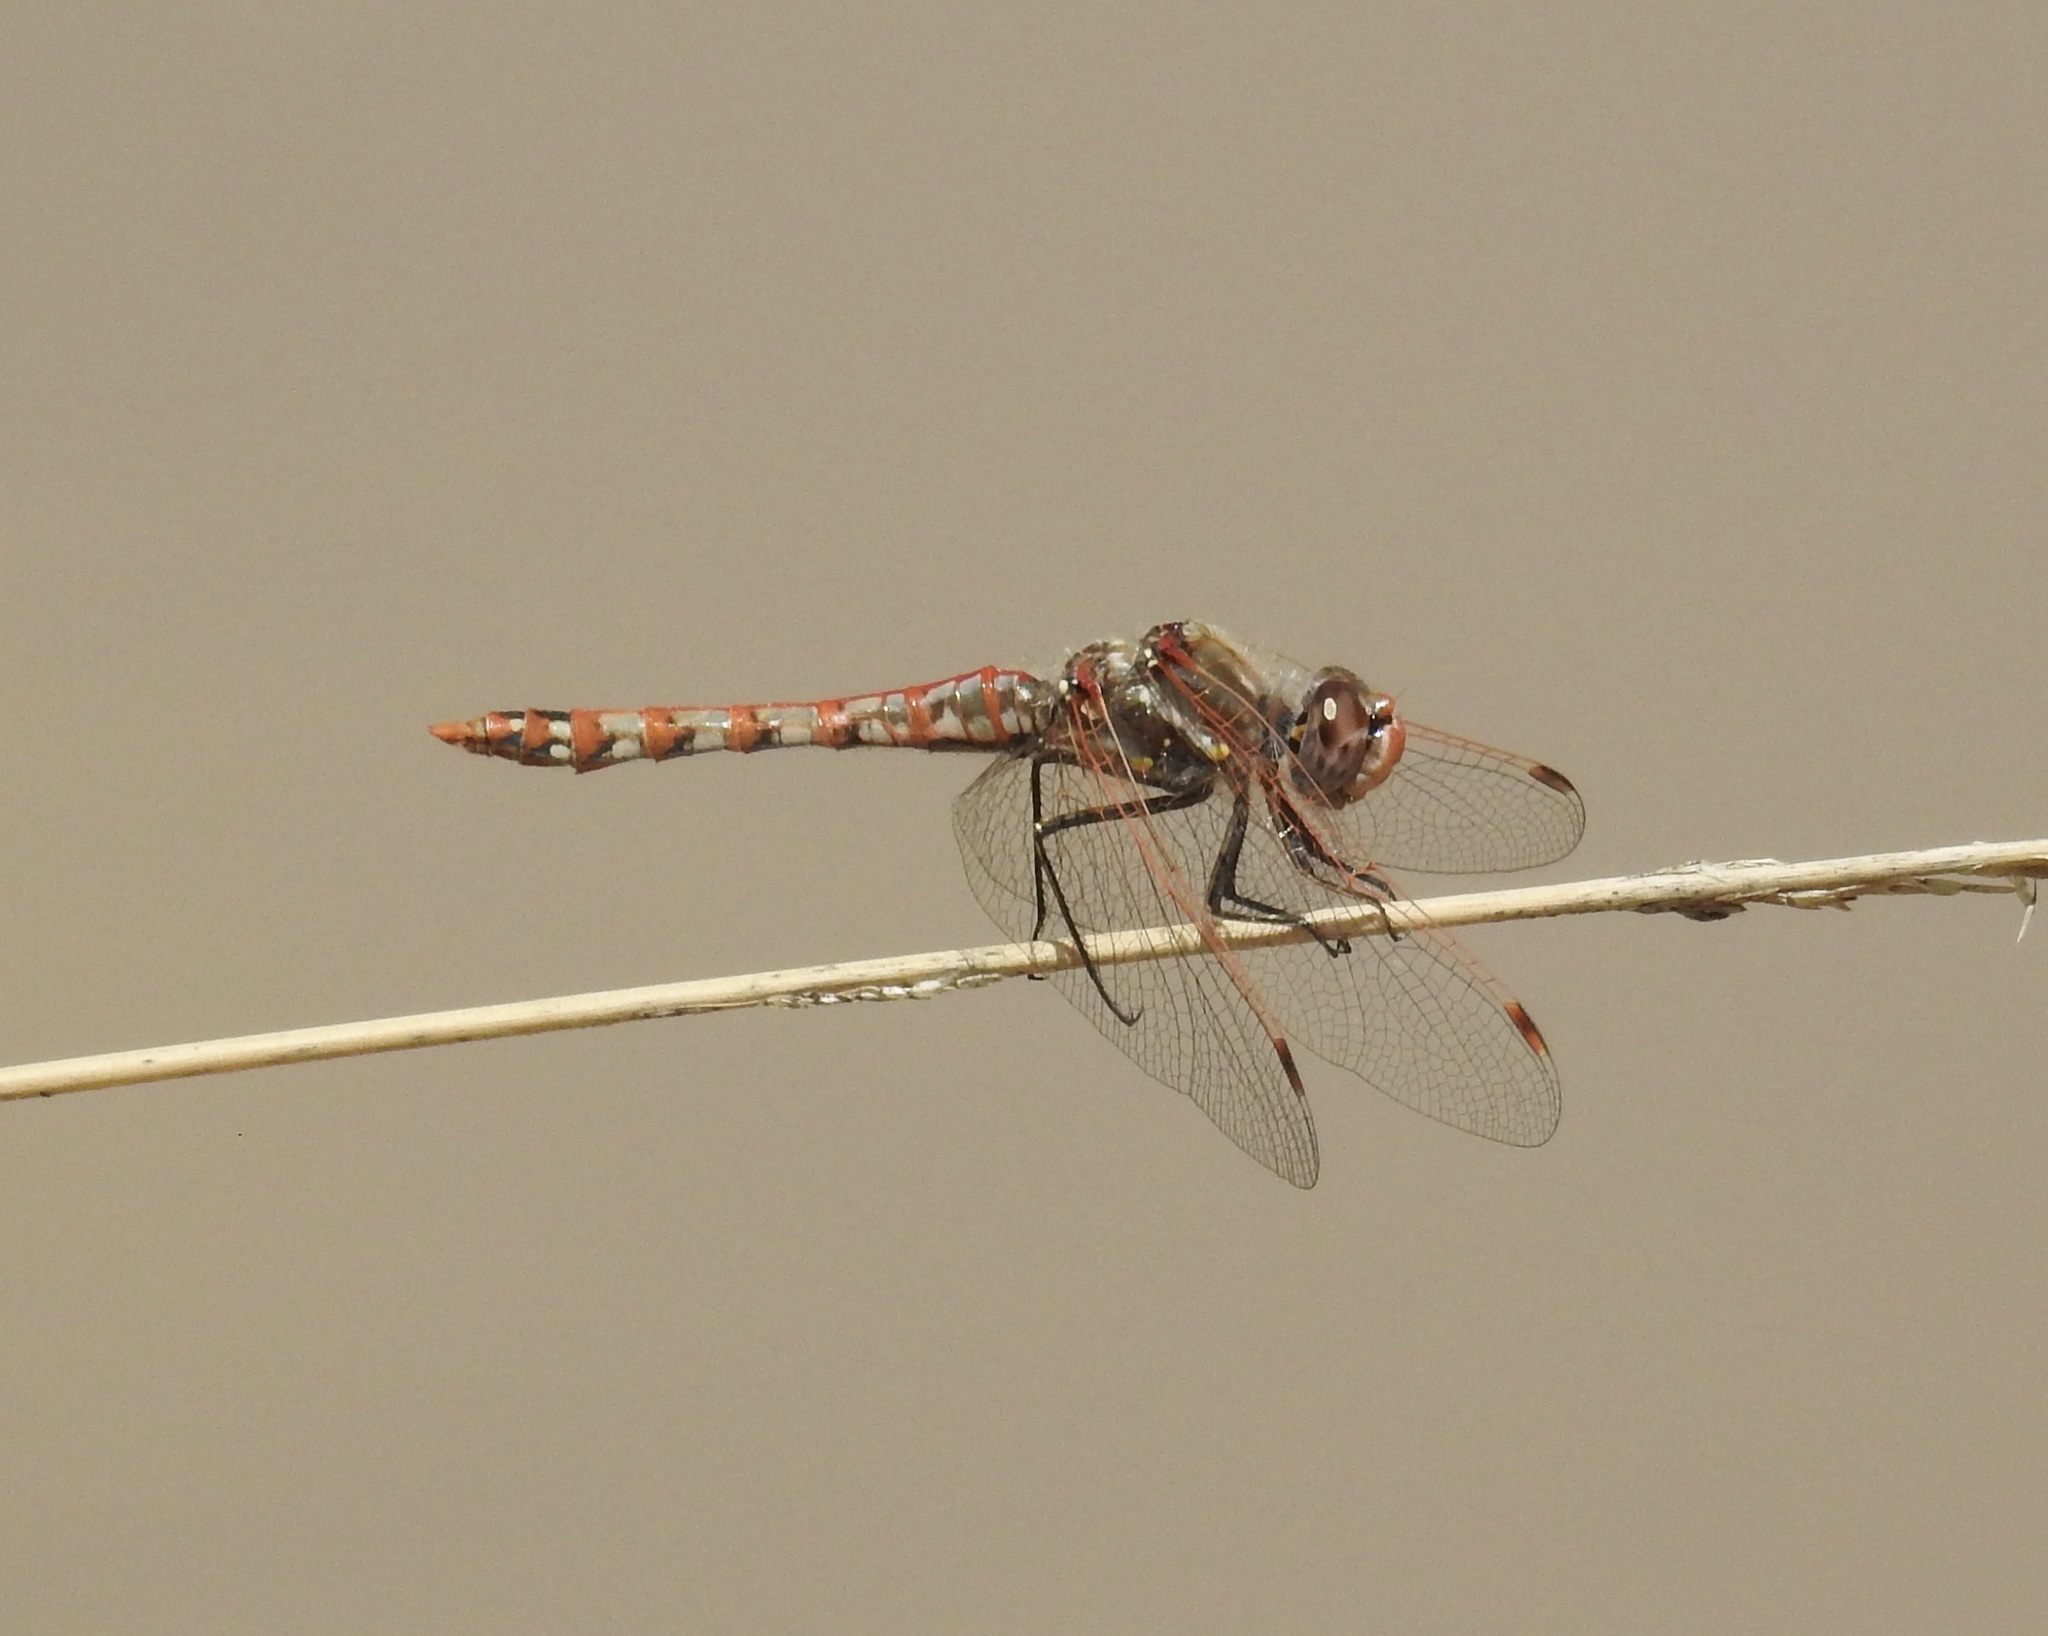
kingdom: Animalia
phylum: Arthropoda
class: Insecta
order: Odonata
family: Libellulidae
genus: Sympetrum
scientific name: Sympetrum corruptum
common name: Variegated meadowhawk
